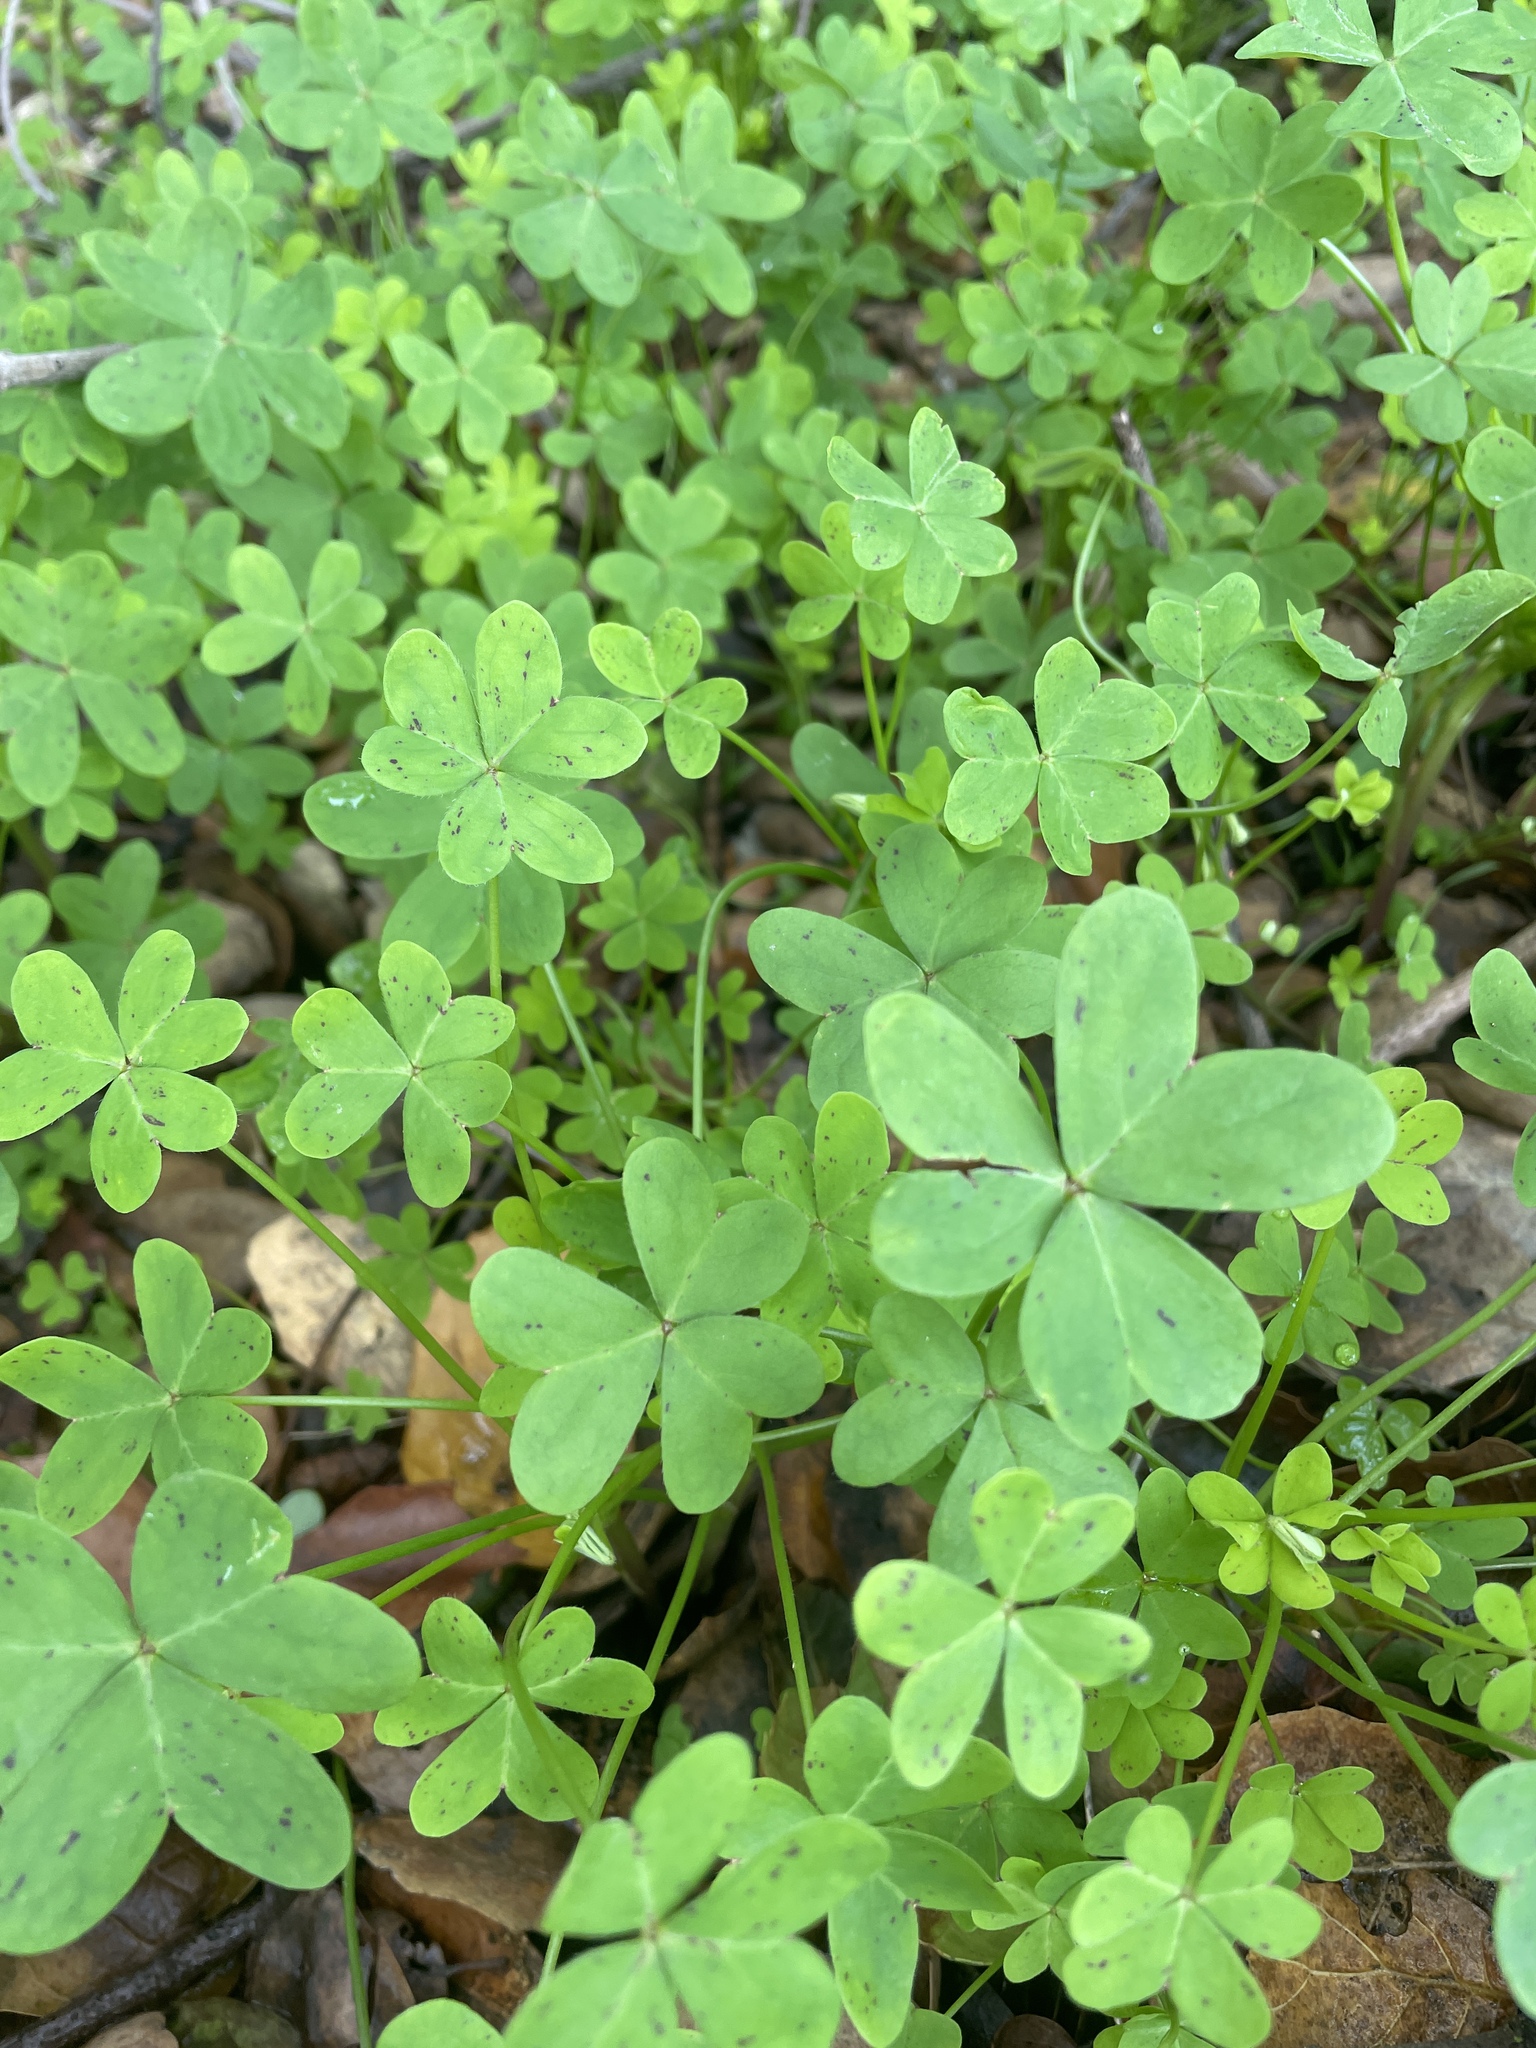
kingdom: Plantae
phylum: Tracheophyta
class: Magnoliopsida
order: Oxalidales
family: Oxalidaceae
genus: Oxalis
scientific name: Oxalis pes-caprae
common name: Bermuda-buttercup
